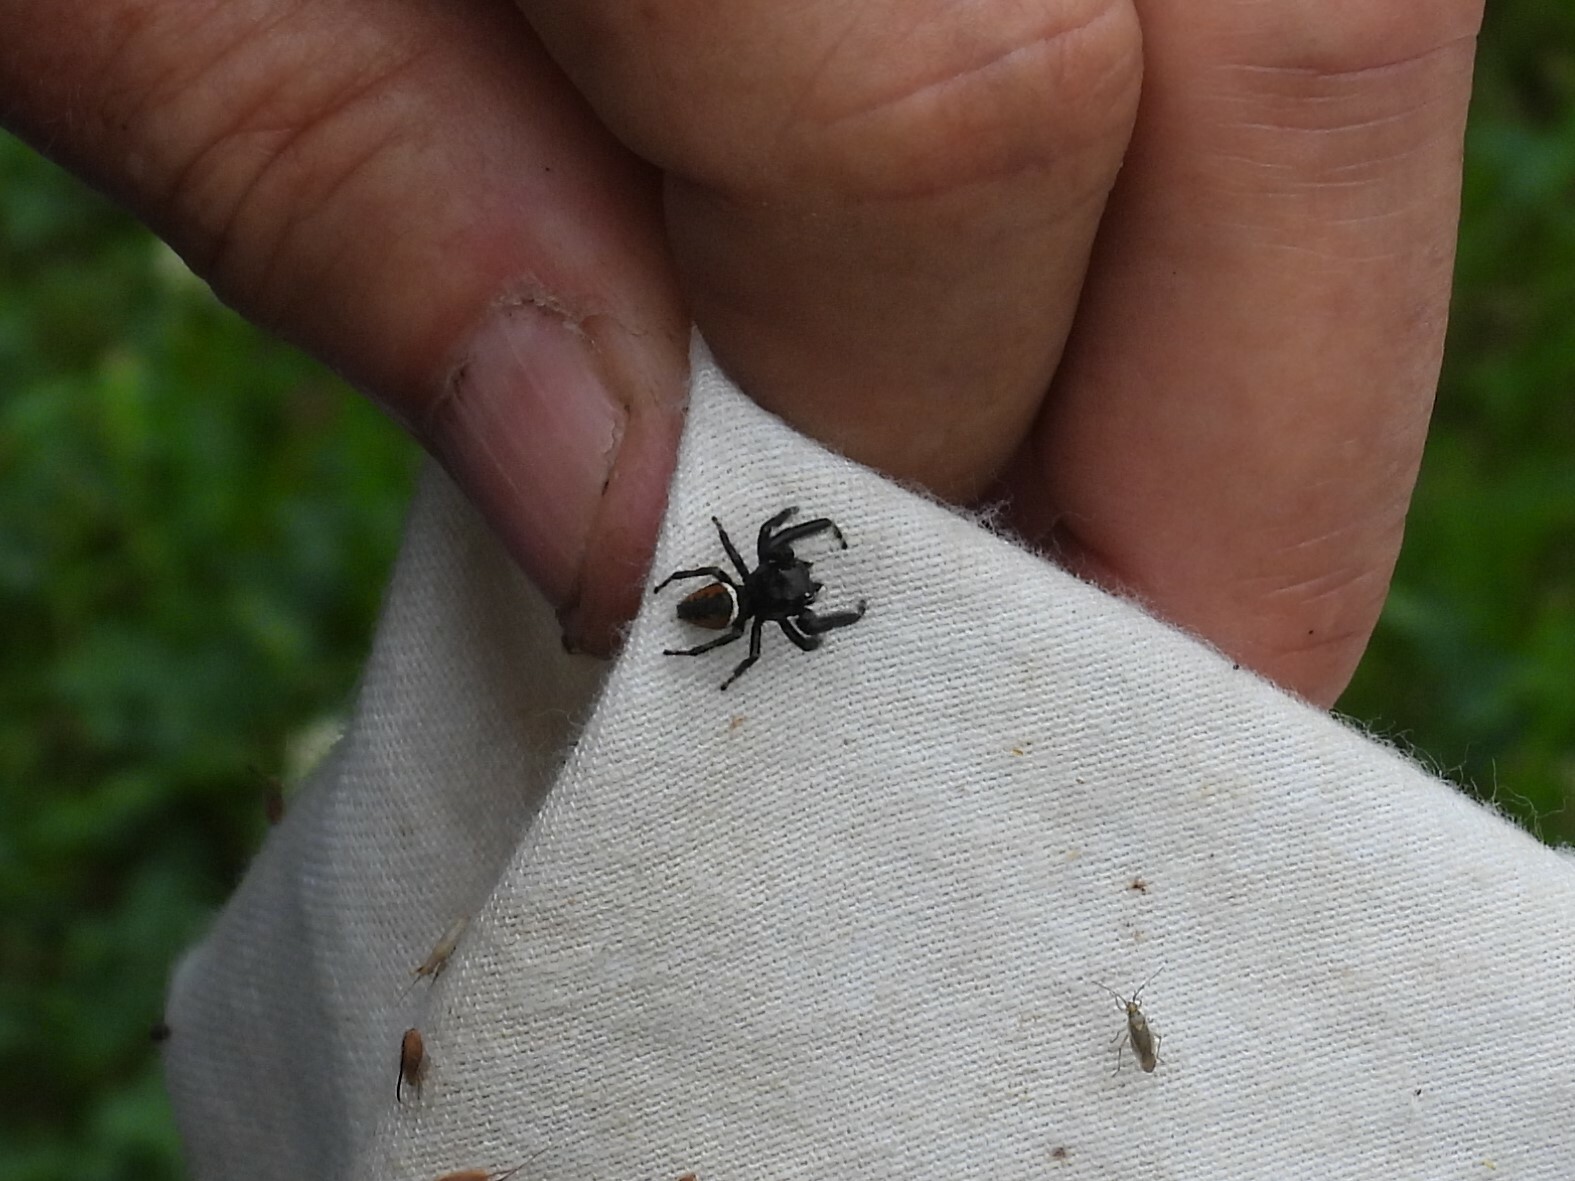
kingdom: Animalia
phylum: Arthropoda
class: Arachnida
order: Araneae
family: Salticidae
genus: Phidippus
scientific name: Phidippus clarus
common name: Brilliant jumping spider
